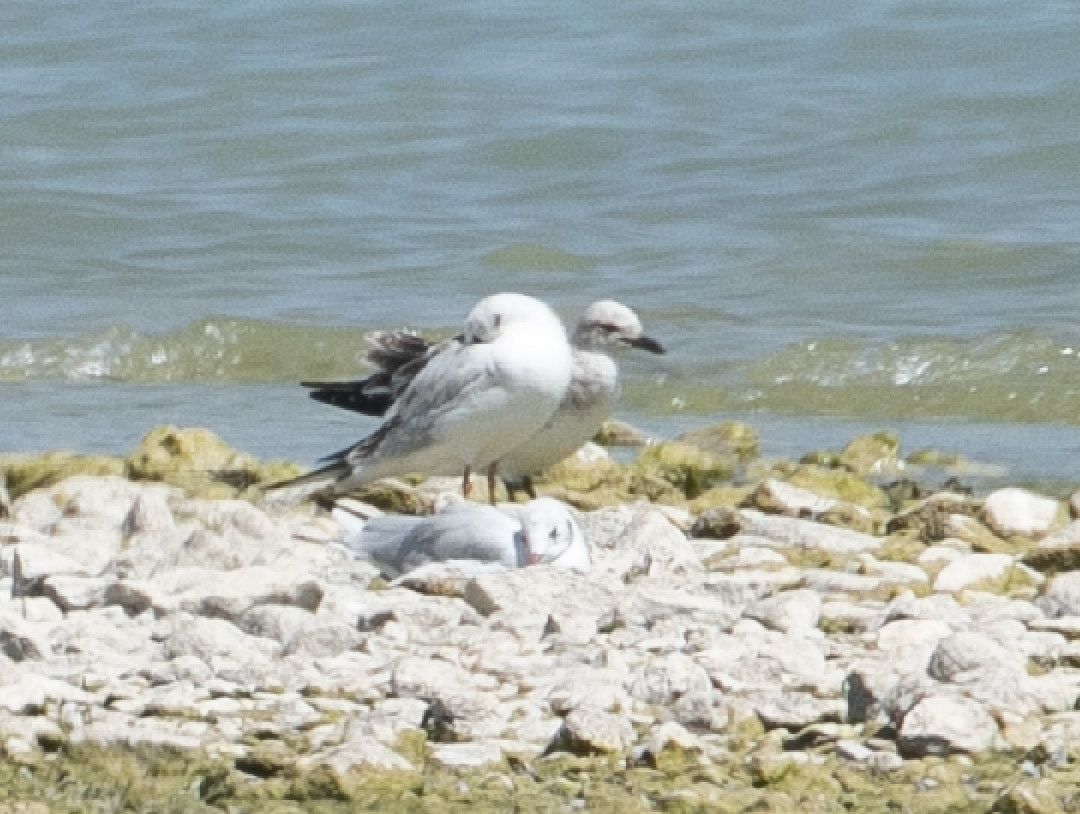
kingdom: Animalia
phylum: Chordata
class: Aves
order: Charadriiformes
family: Laridae
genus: Ichthyaetus
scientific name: Ichthyaetus melanocephalus
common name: Mediterranean gull
